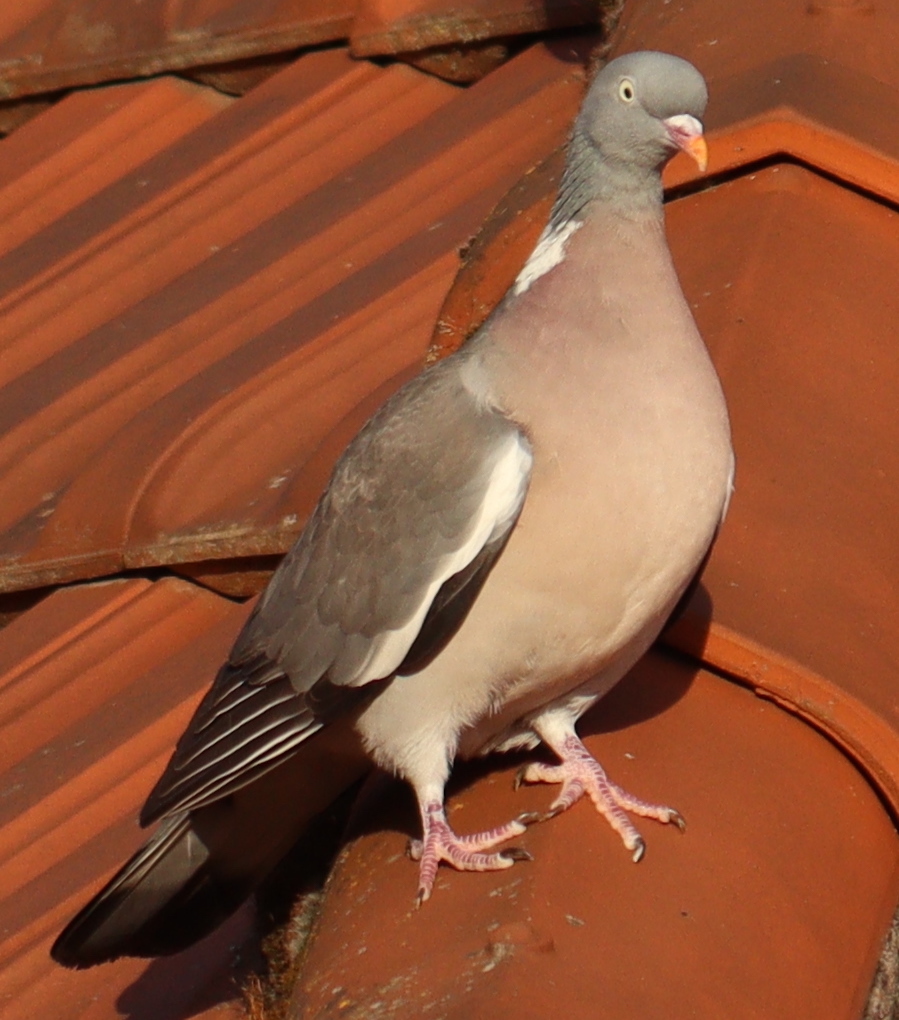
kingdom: Animalia
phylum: Chordata
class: Aves
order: Columbiformes
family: Columbidae
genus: Columba
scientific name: Columba palumbus
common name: Common wood pigeon
